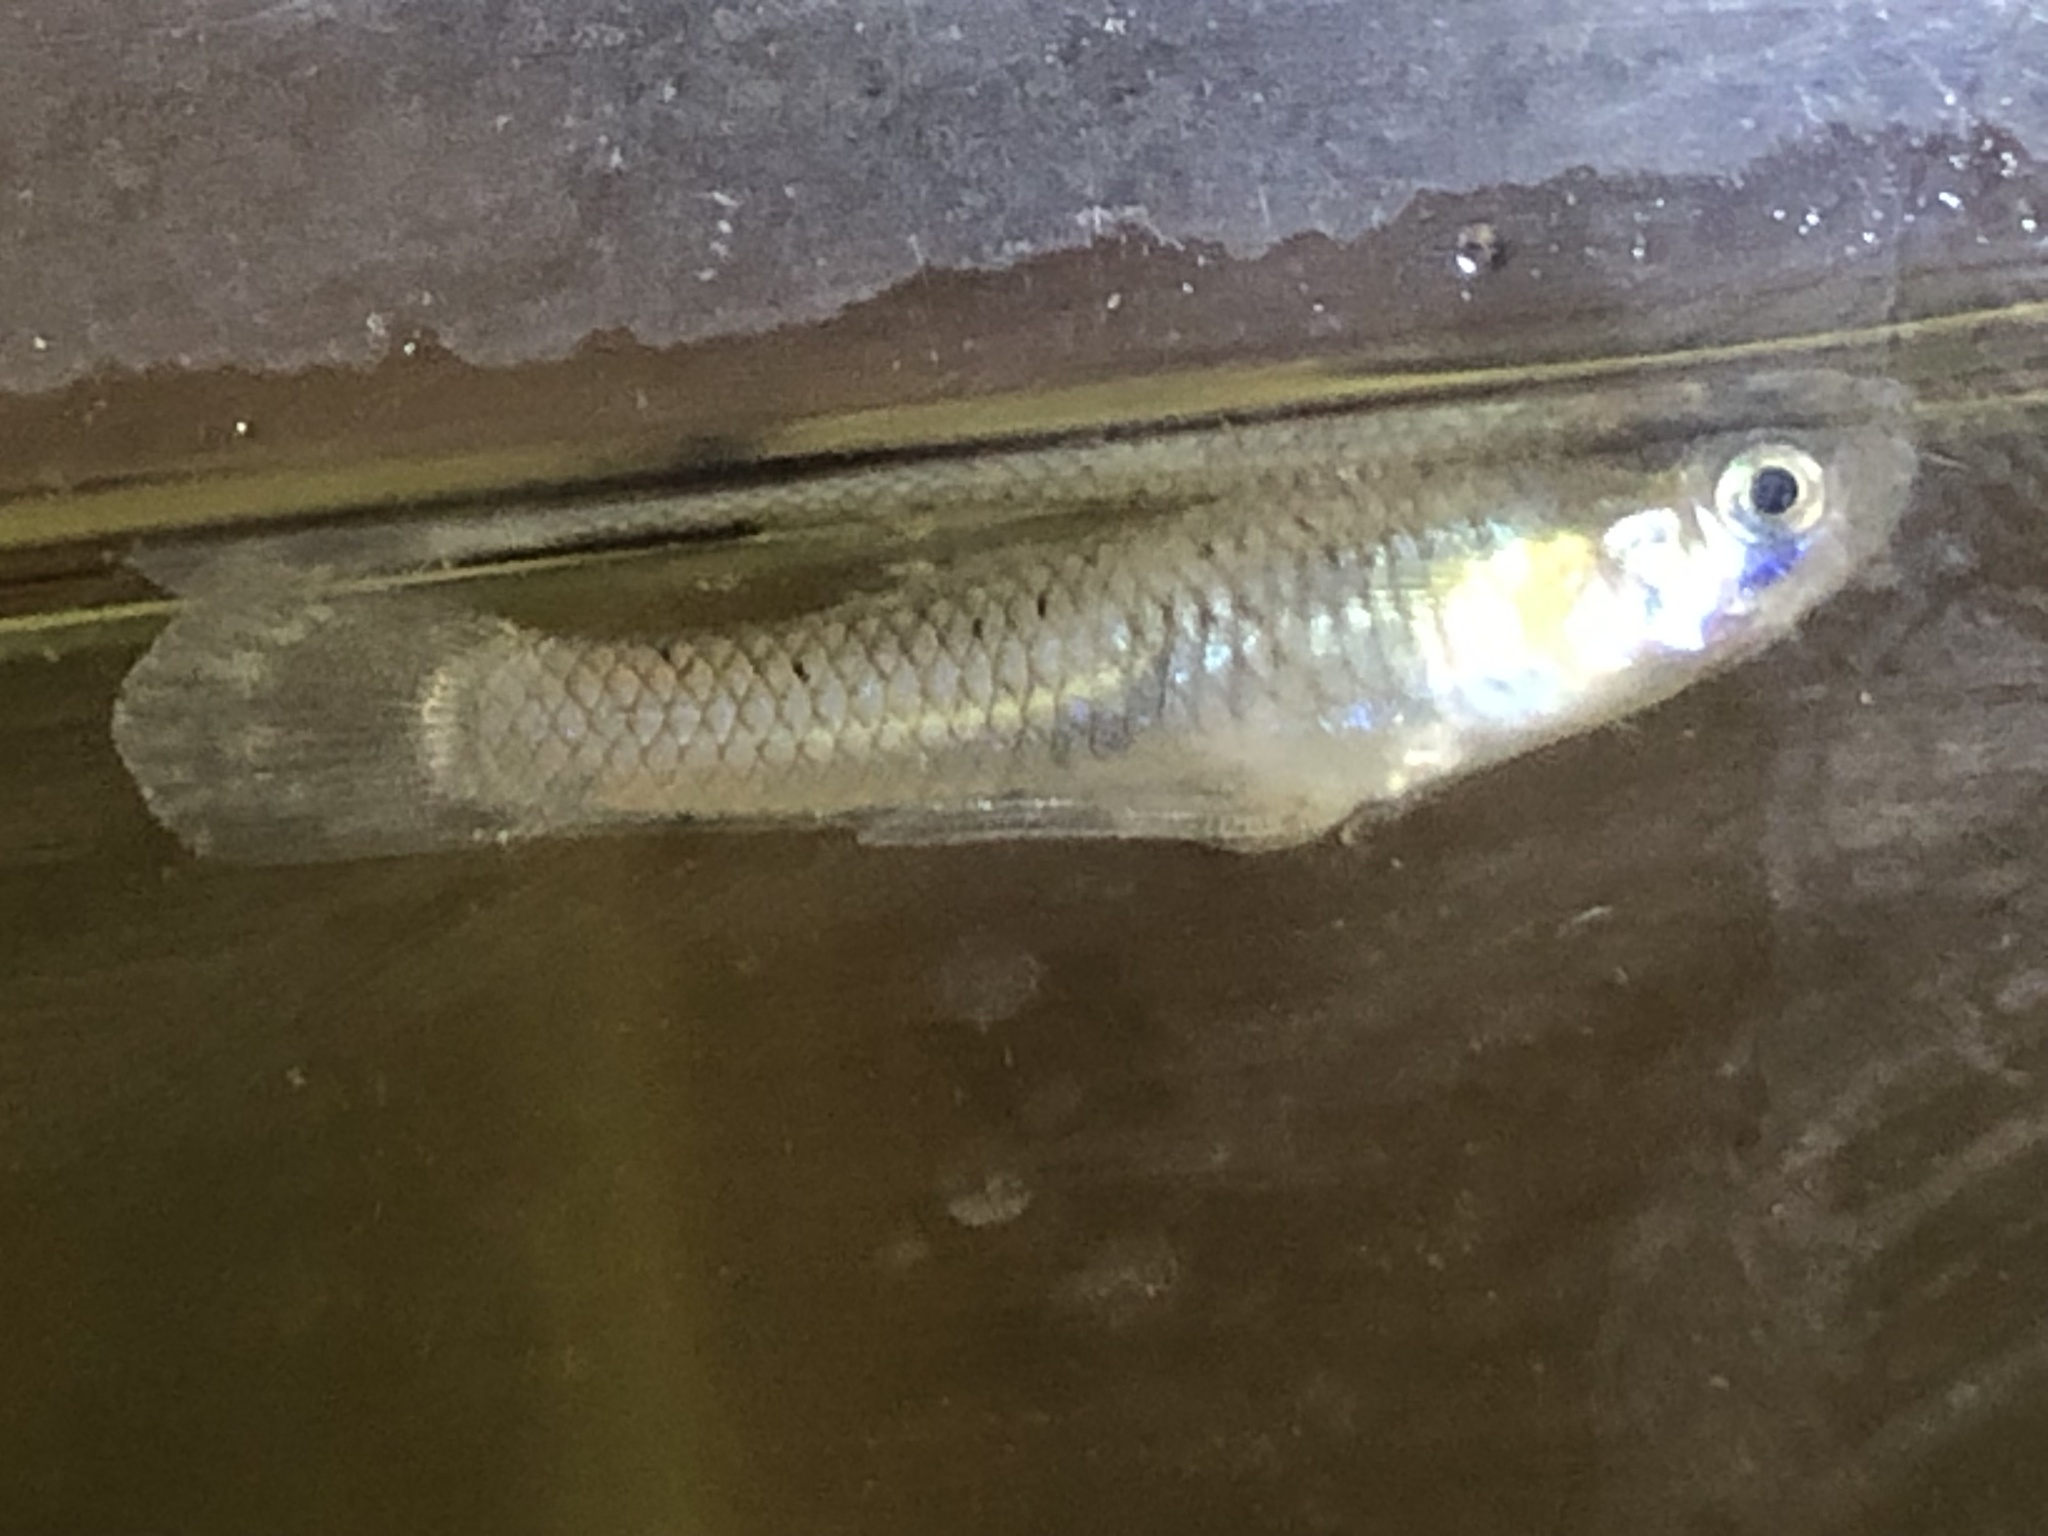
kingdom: Animalia
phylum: Chordata
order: Cyprinodontiformes
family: Poeciliidae
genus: Gambusia
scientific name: Gambusia affinis
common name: Mosquitofish
